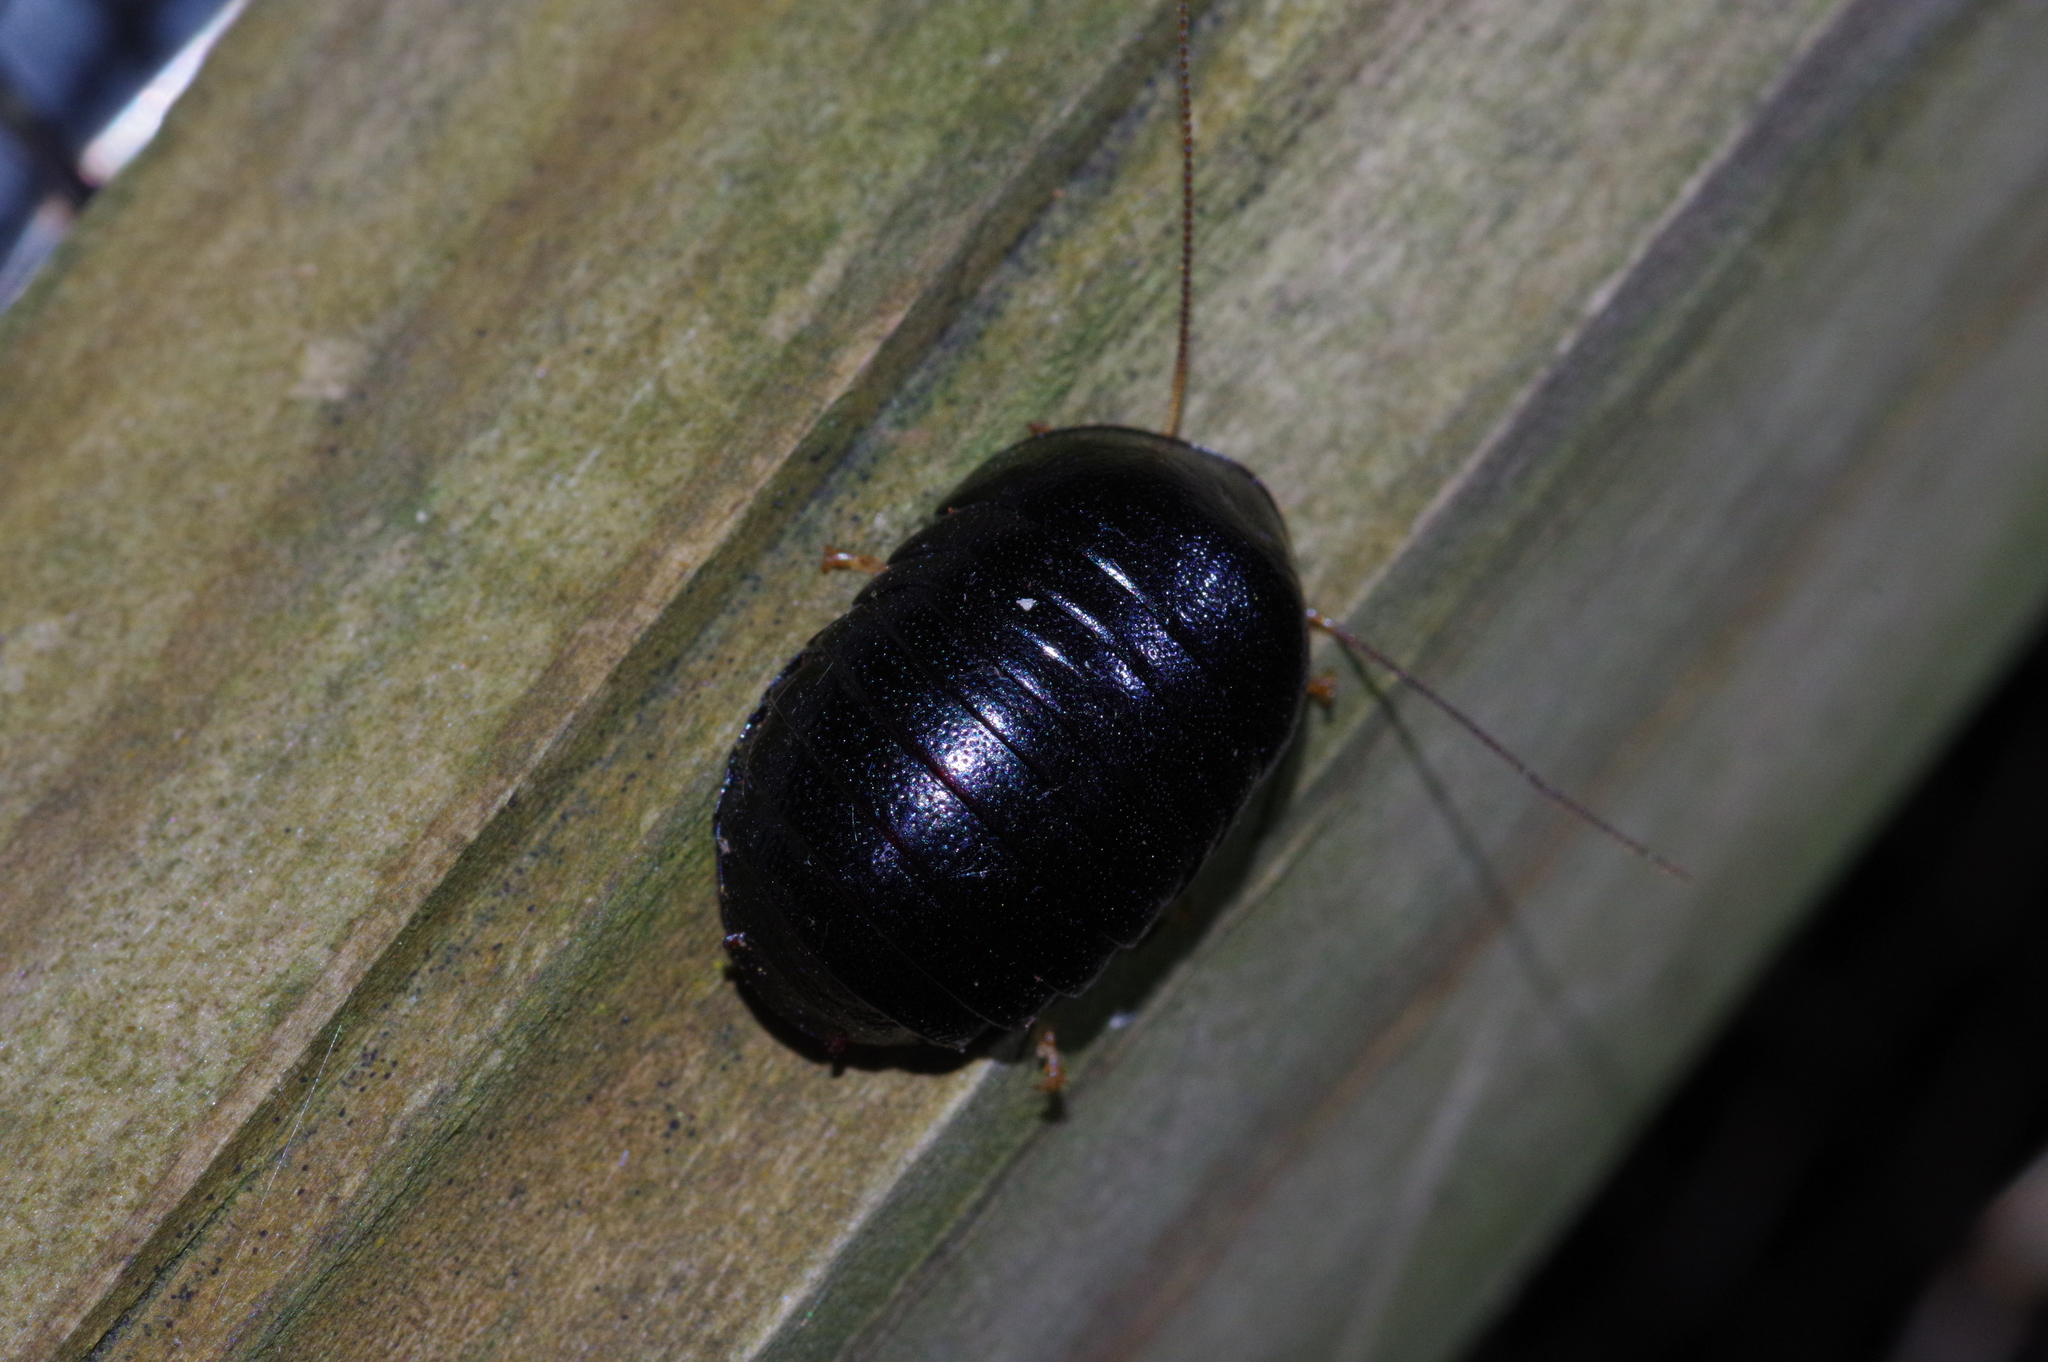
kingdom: Animalia
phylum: Arthropoda
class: Insecta
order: Blattodea
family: Blaberidae
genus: Perisphaerus
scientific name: Perisphaerus pygmaea
